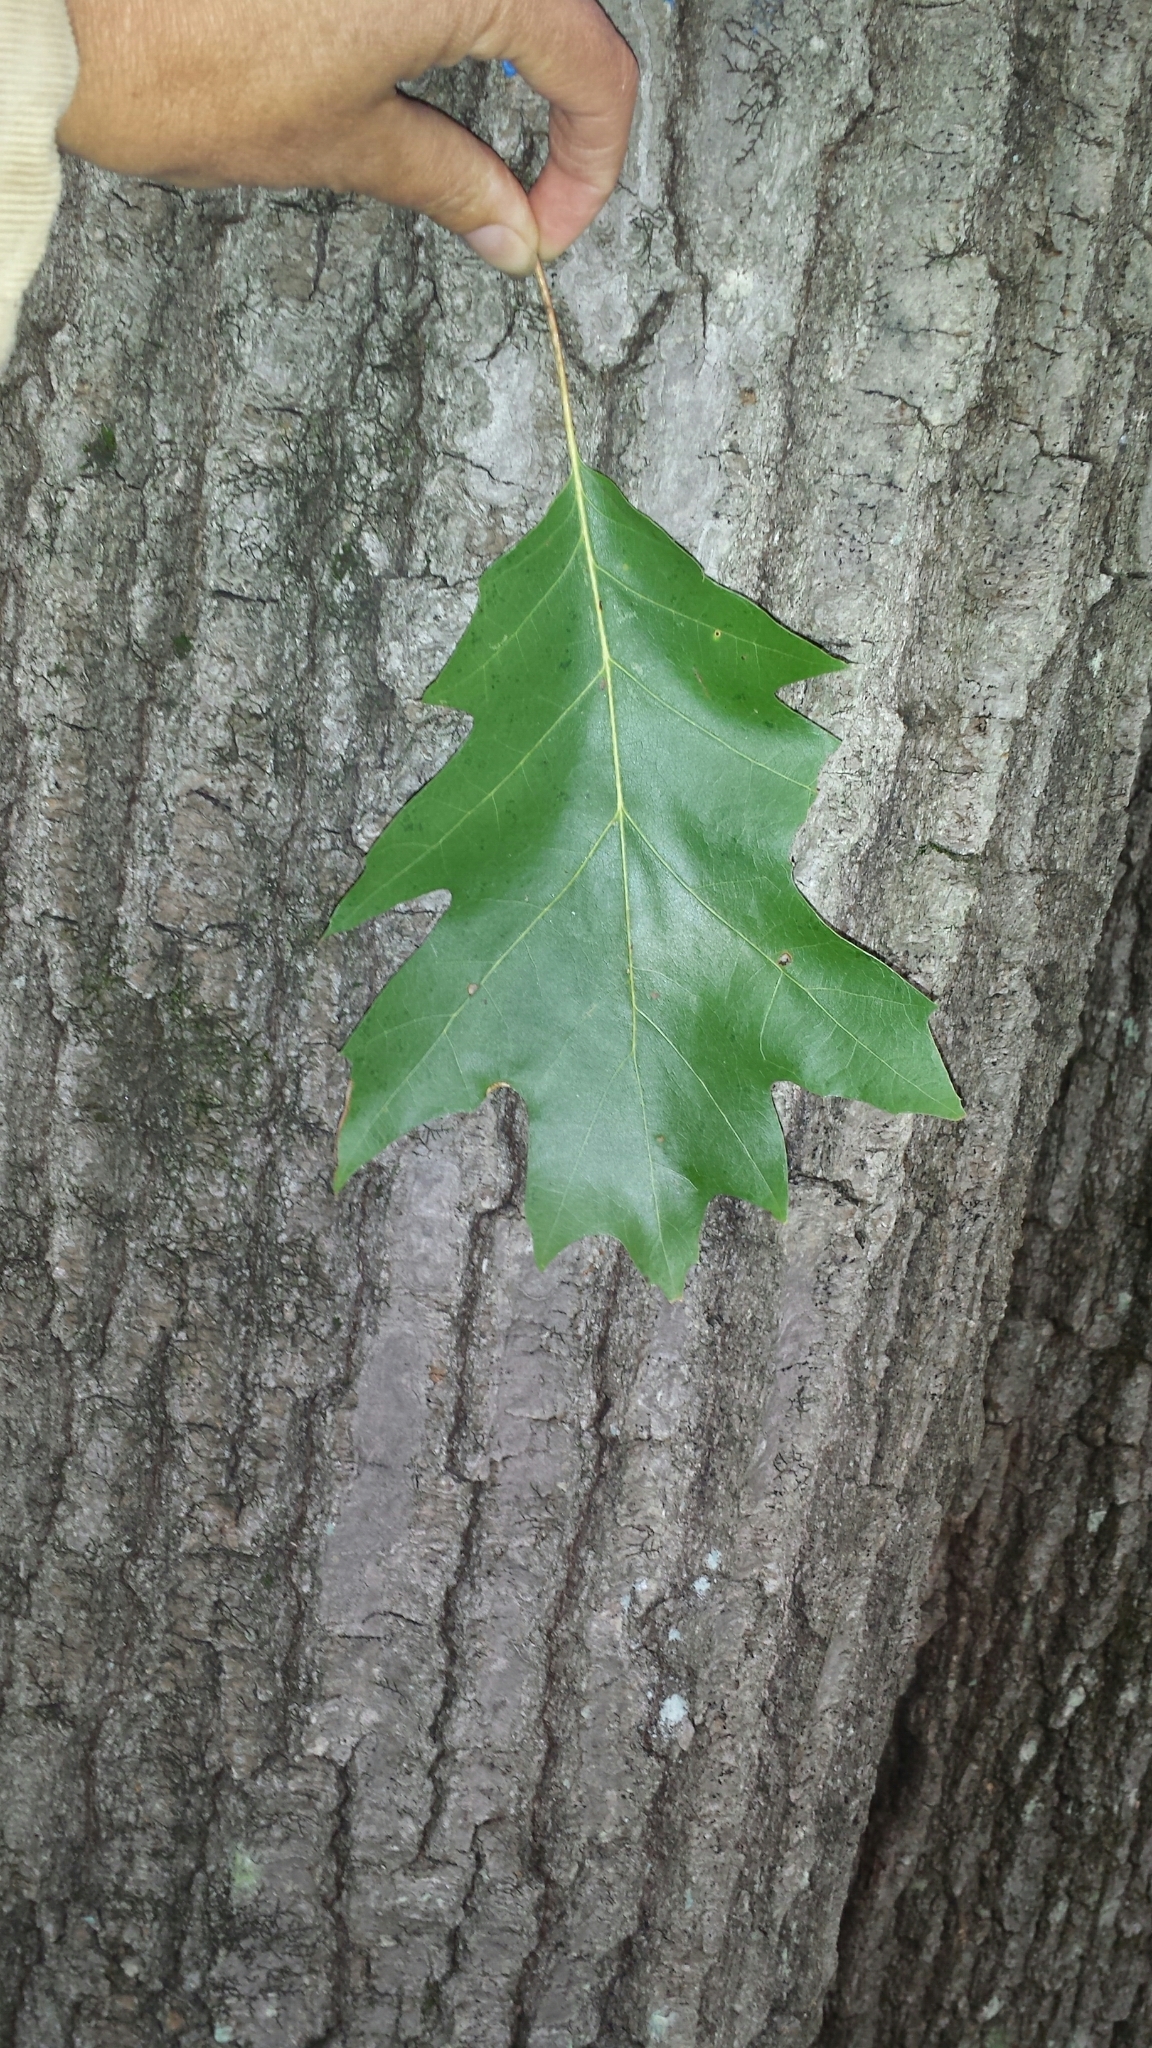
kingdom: Plantae
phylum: Tracheophyta
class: Magnoliopsida
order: Fagales
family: Fagaceae
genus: Quercus
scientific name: Quercus rubra
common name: Red oak
